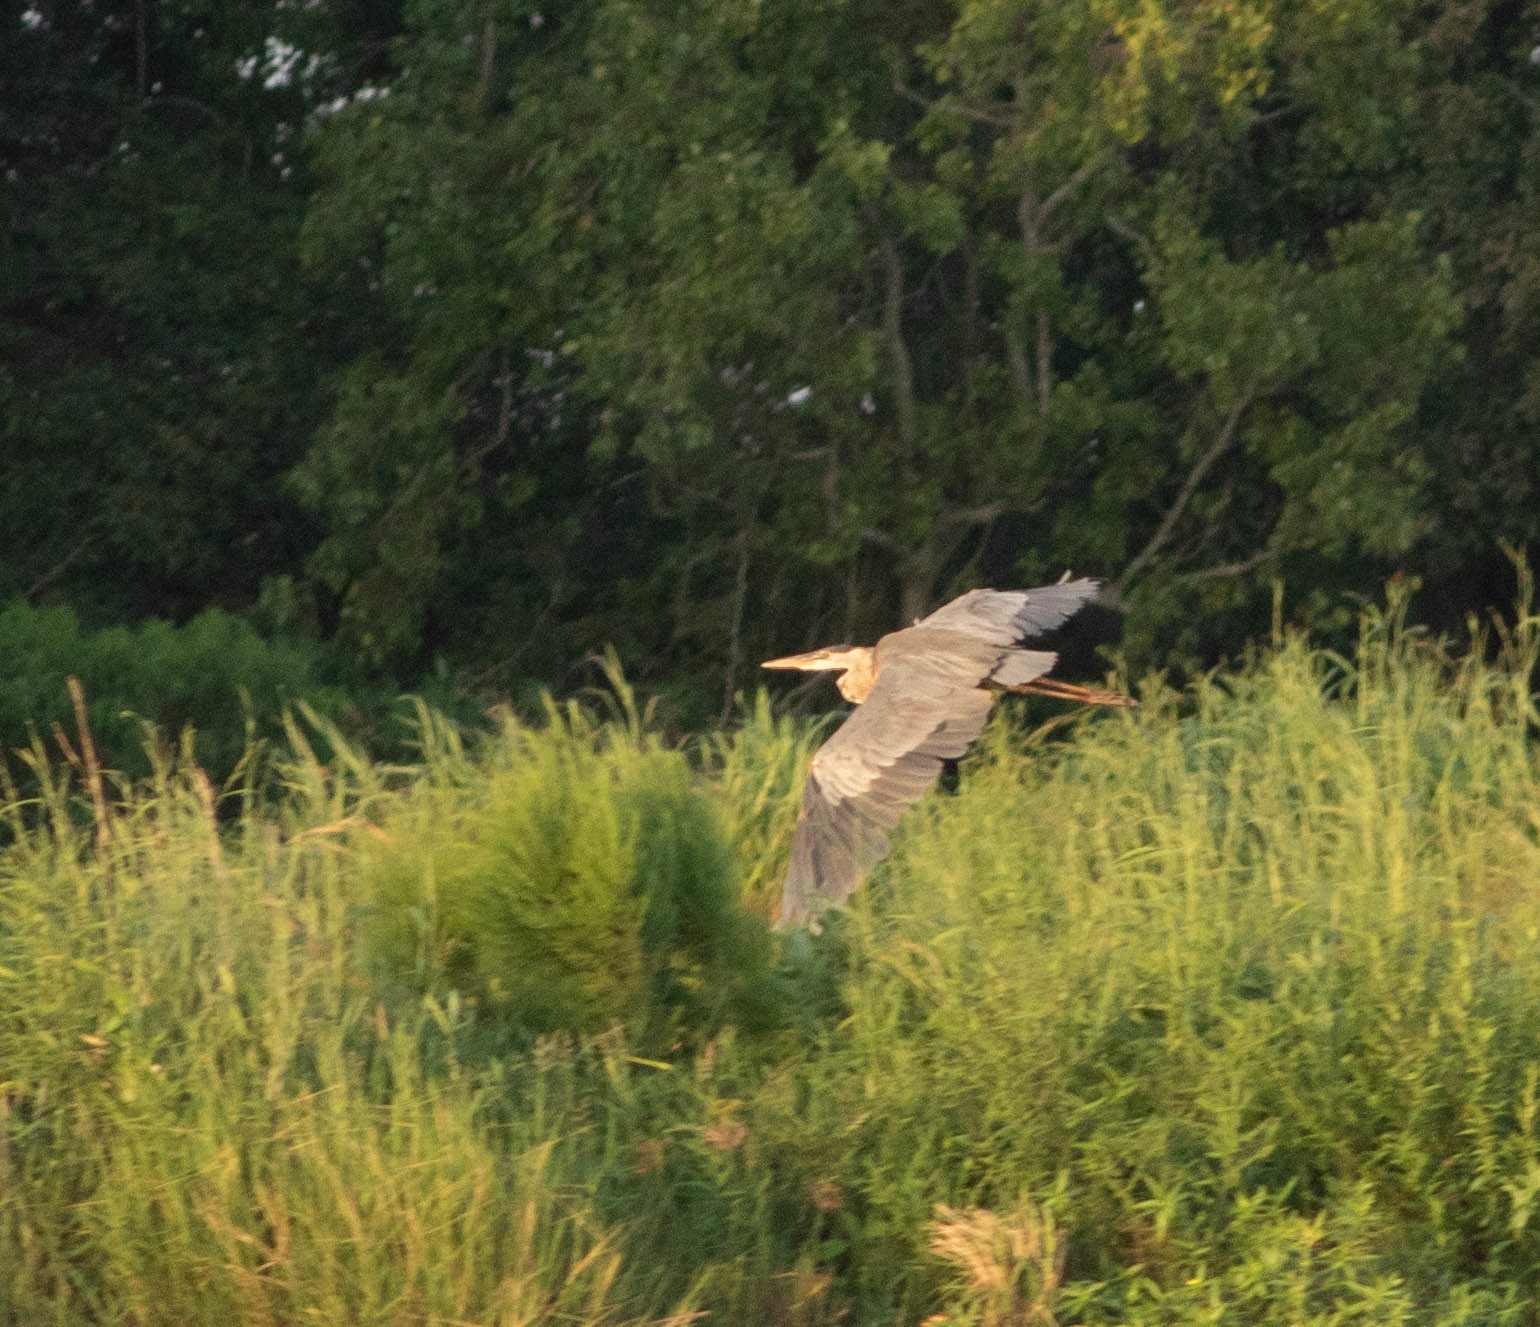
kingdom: Animalia
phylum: Chordata
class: Aves
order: Pelecaniformes
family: Ardeidae
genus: Ardea
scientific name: Ardea herodias
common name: Great blue heron
